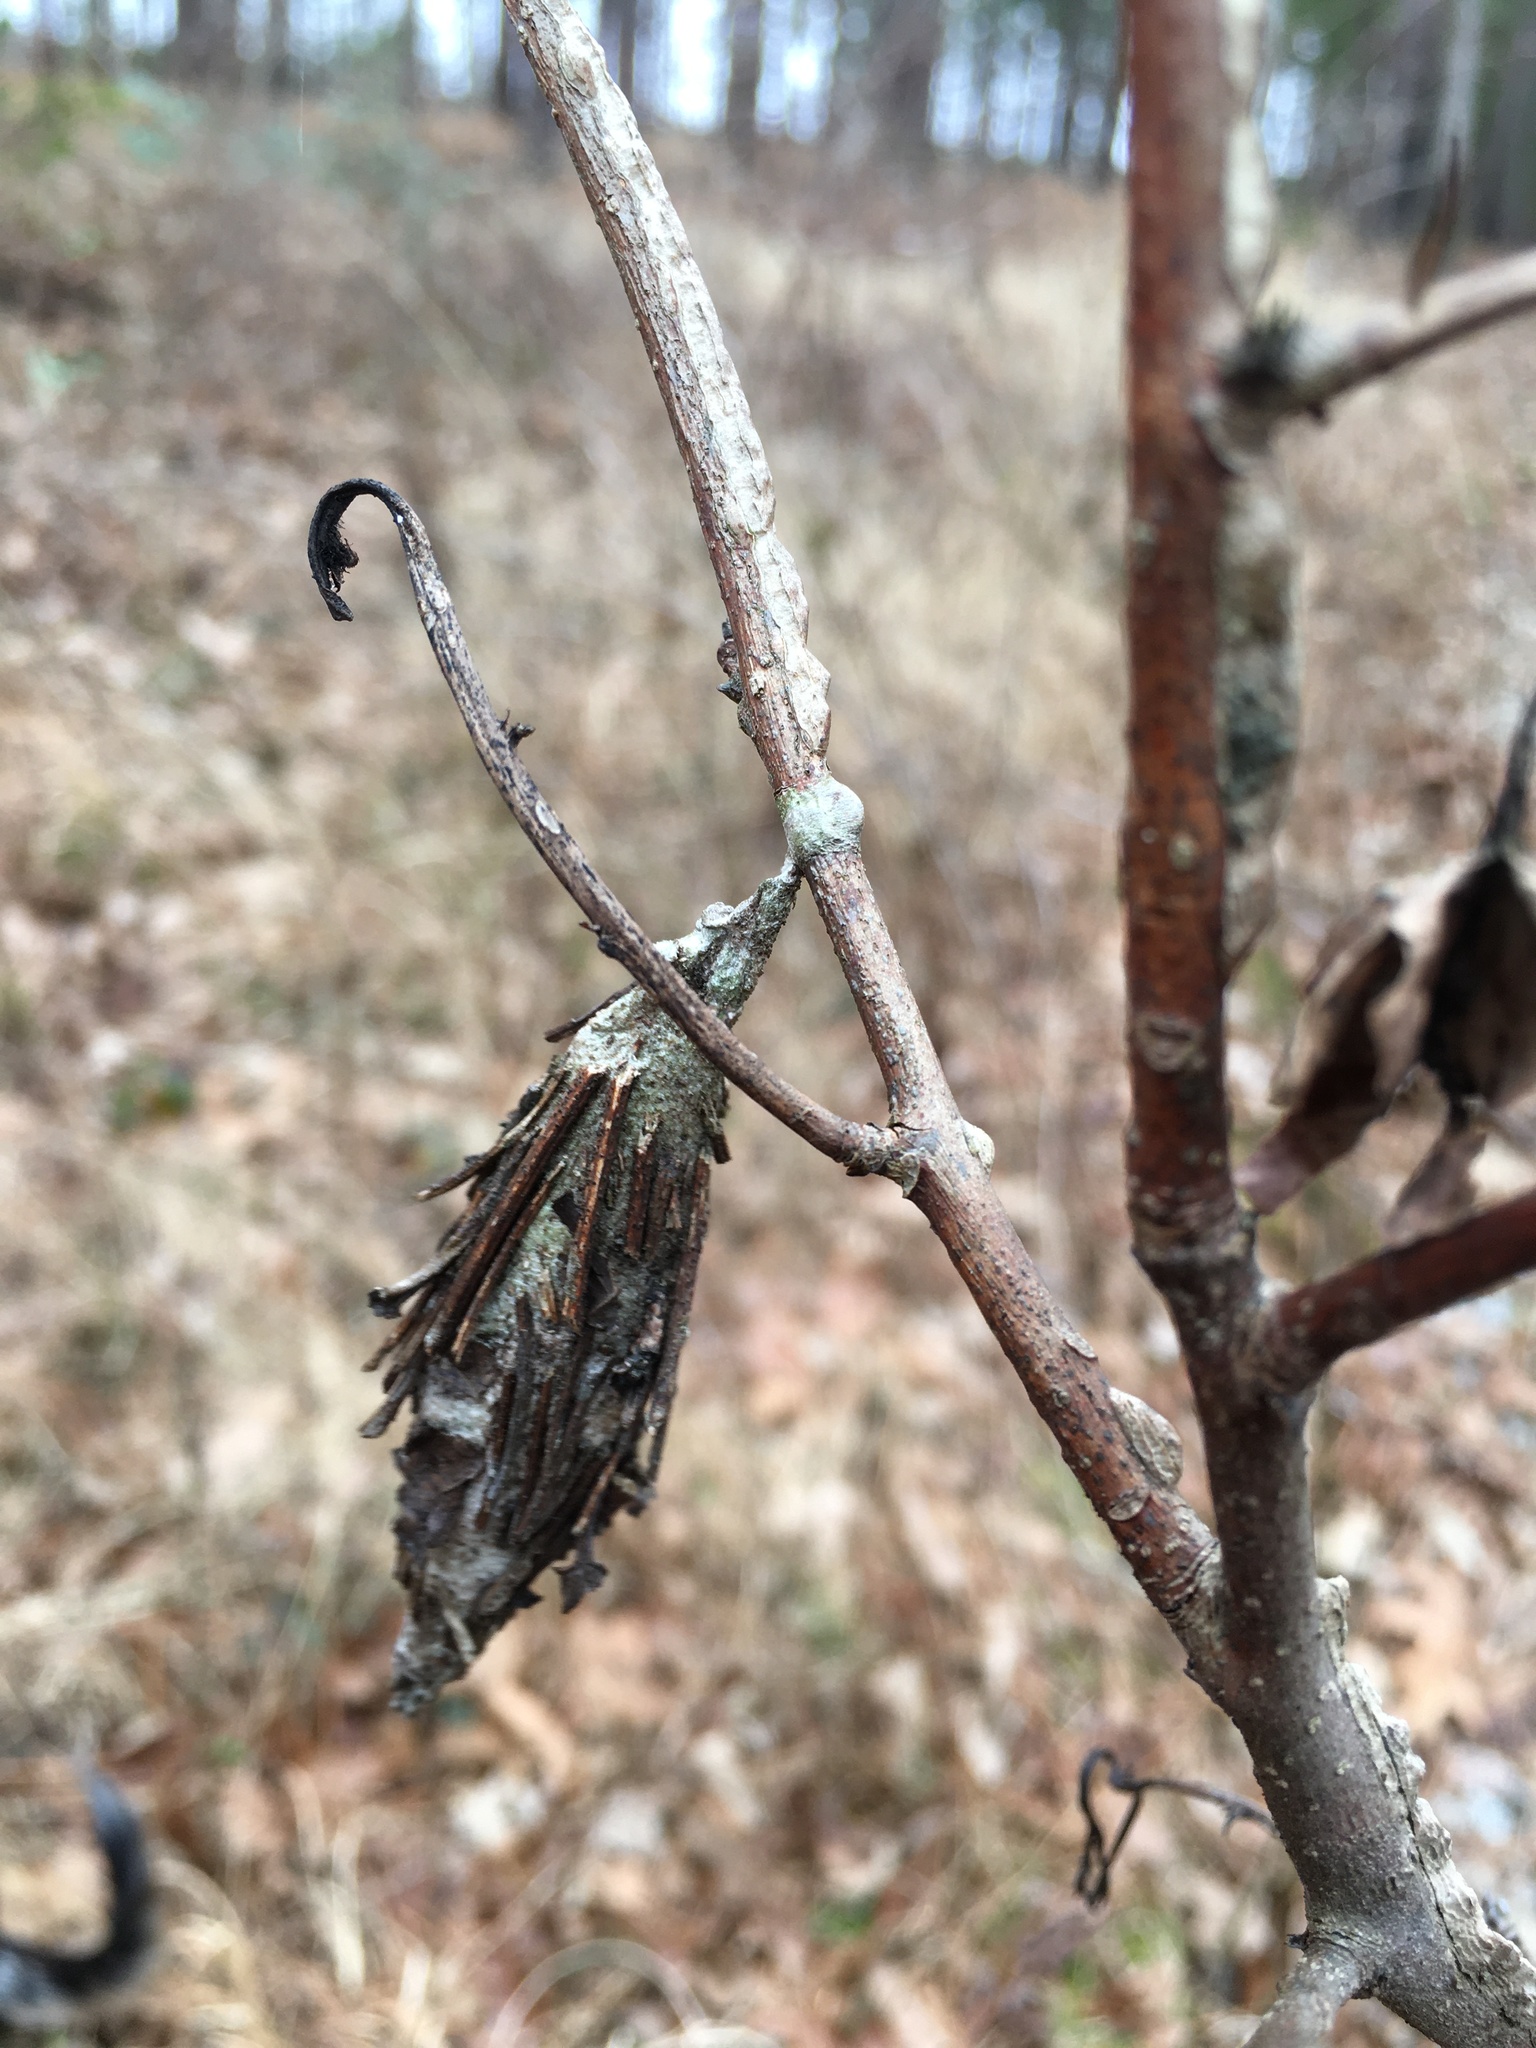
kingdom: Animalia
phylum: Arthropoda
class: Insecta
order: Lepidoptera
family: Psychidae
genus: Thyridopteryx
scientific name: Thyridopteryx ephemeraeformis
